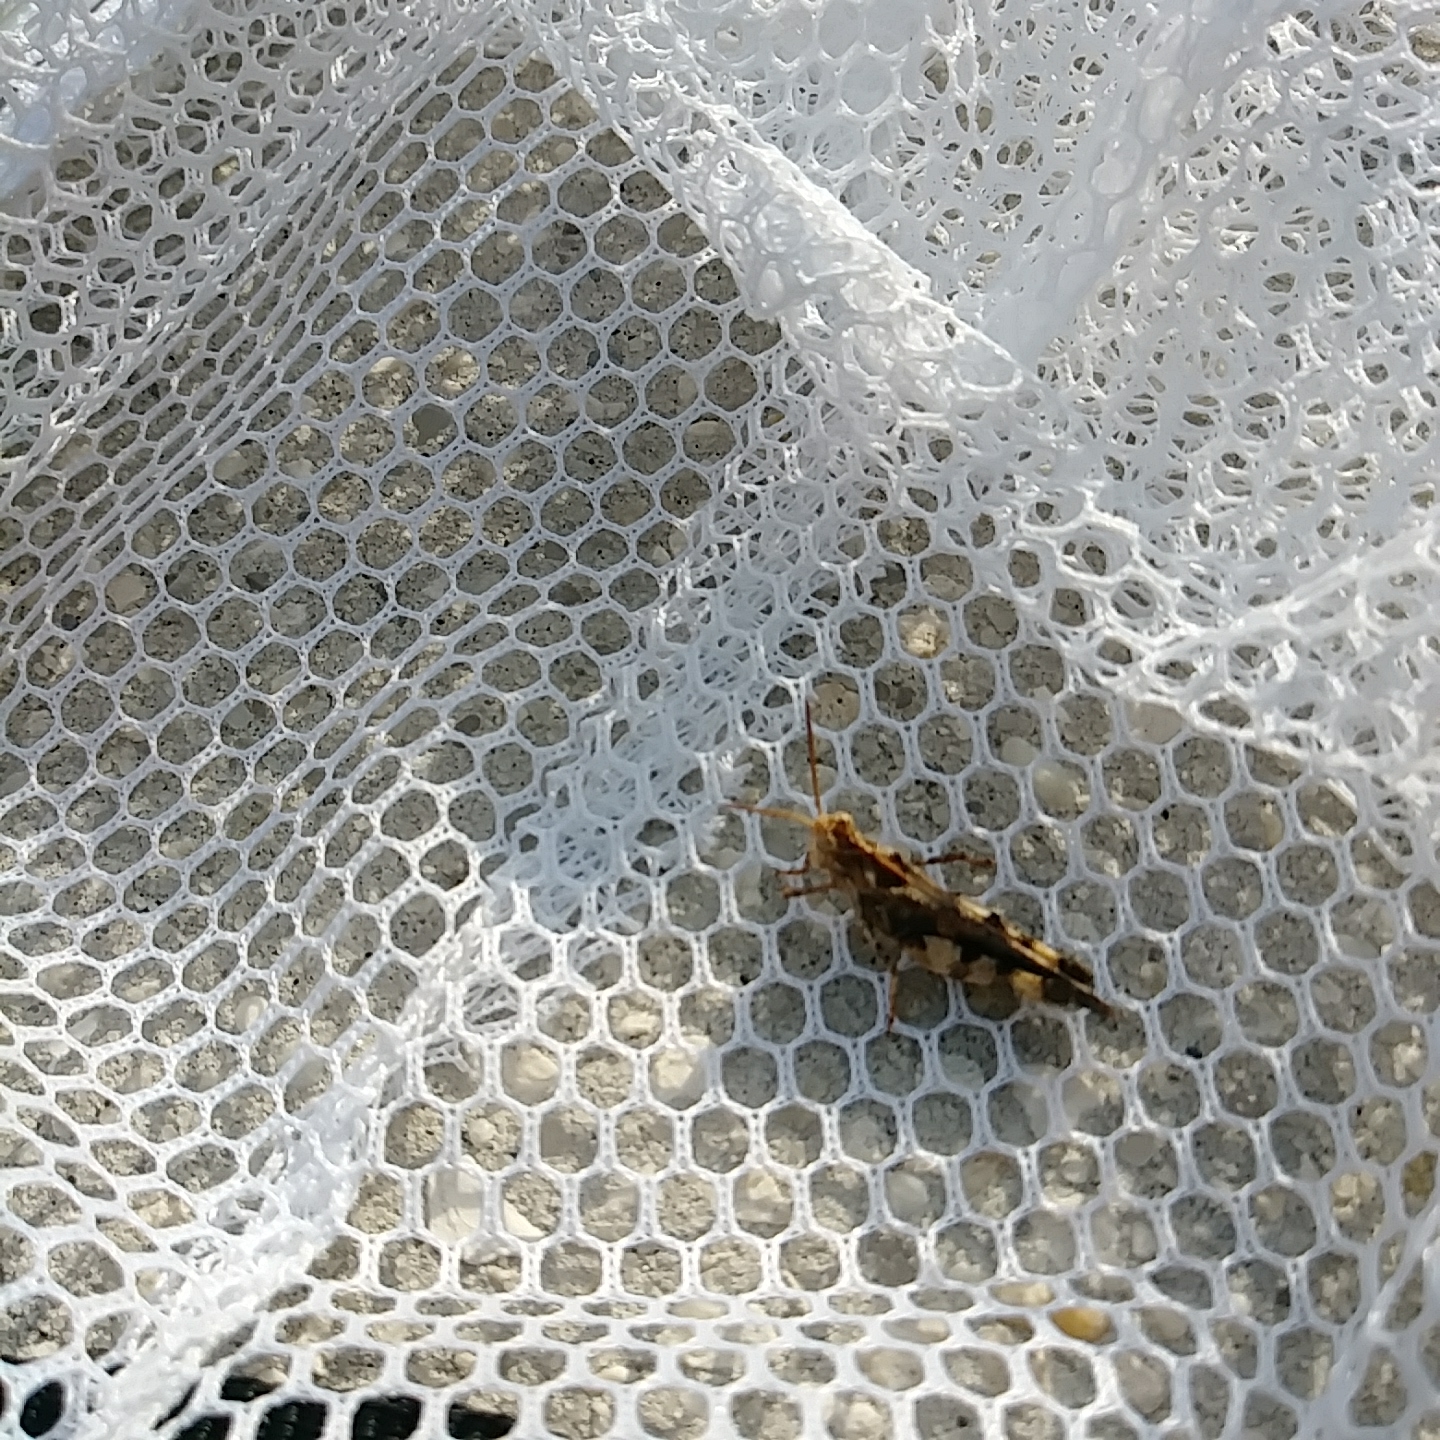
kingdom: Animalia
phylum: Arthropoda
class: Insecta
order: Orthoptera
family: Acrididae
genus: Chortophaga
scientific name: Chortophaga australior
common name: Southern green-striped grasshopper
